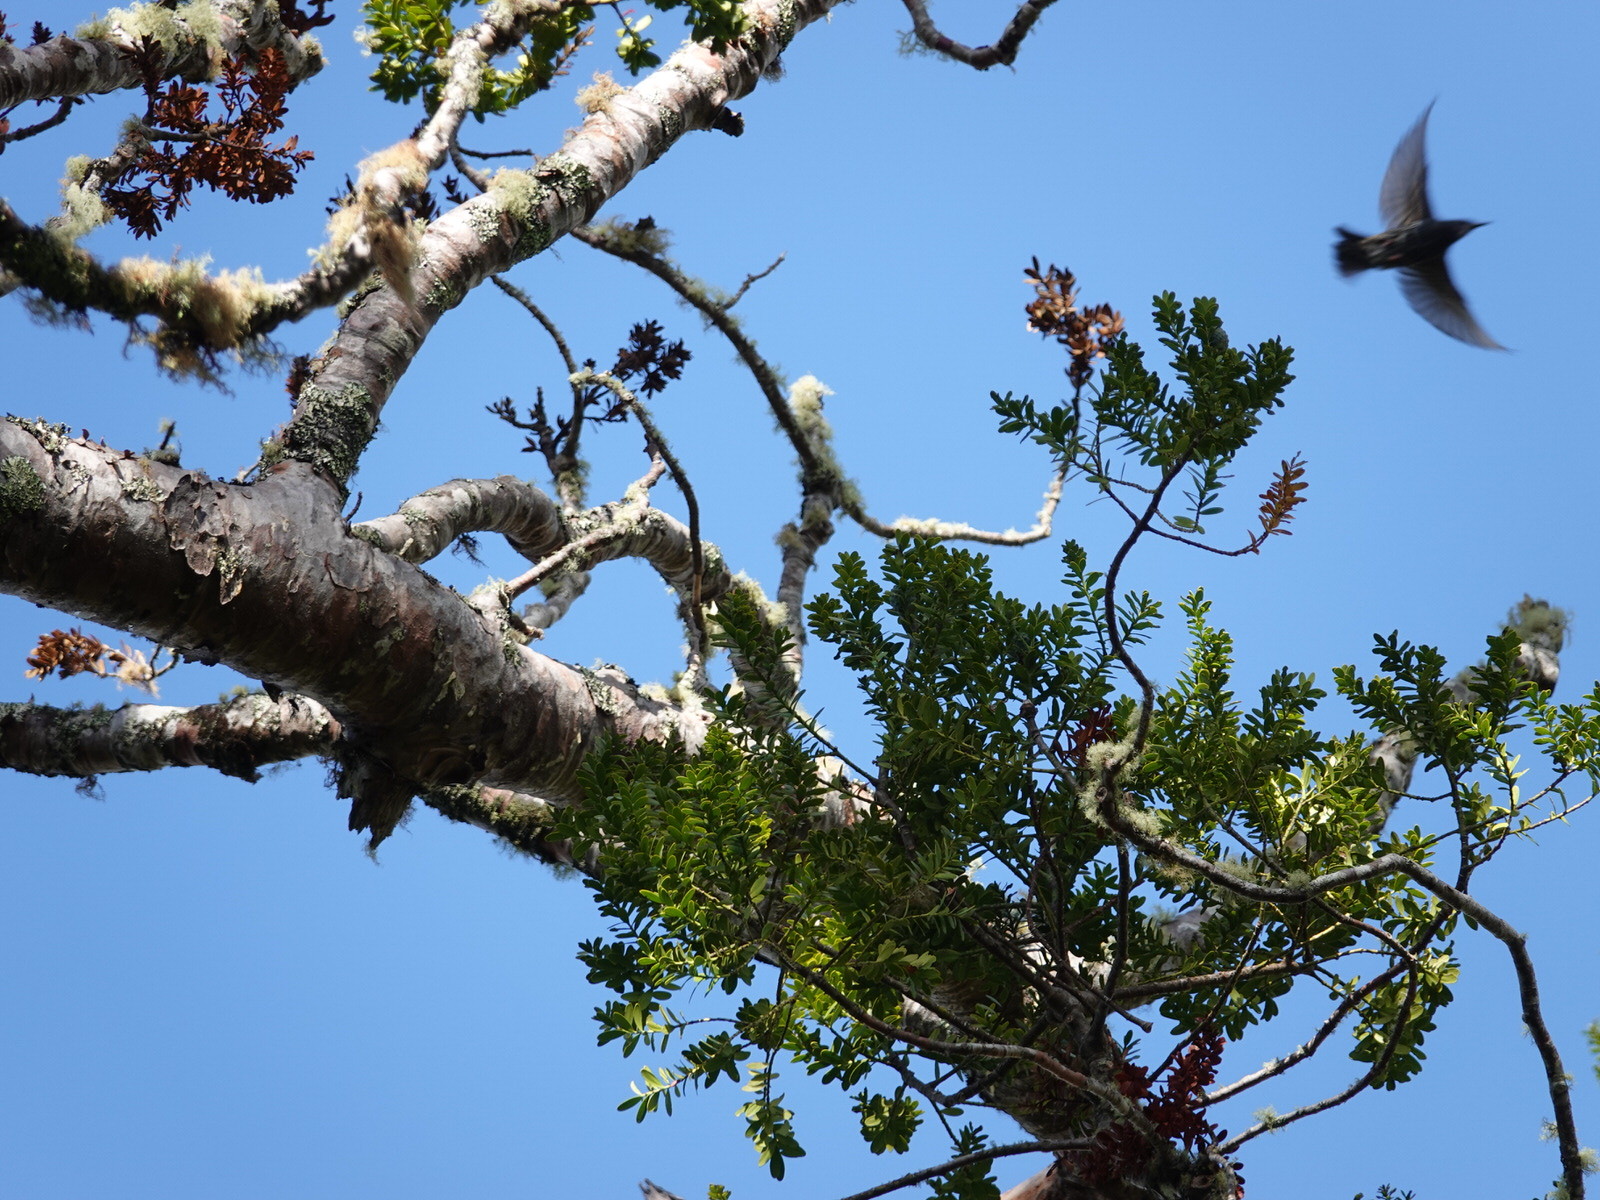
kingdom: Animalia
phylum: Chordata
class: Aves
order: Passeriformes
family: Sturnidae
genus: Sturnus
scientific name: Sturnus vulgaris
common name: Common starling
